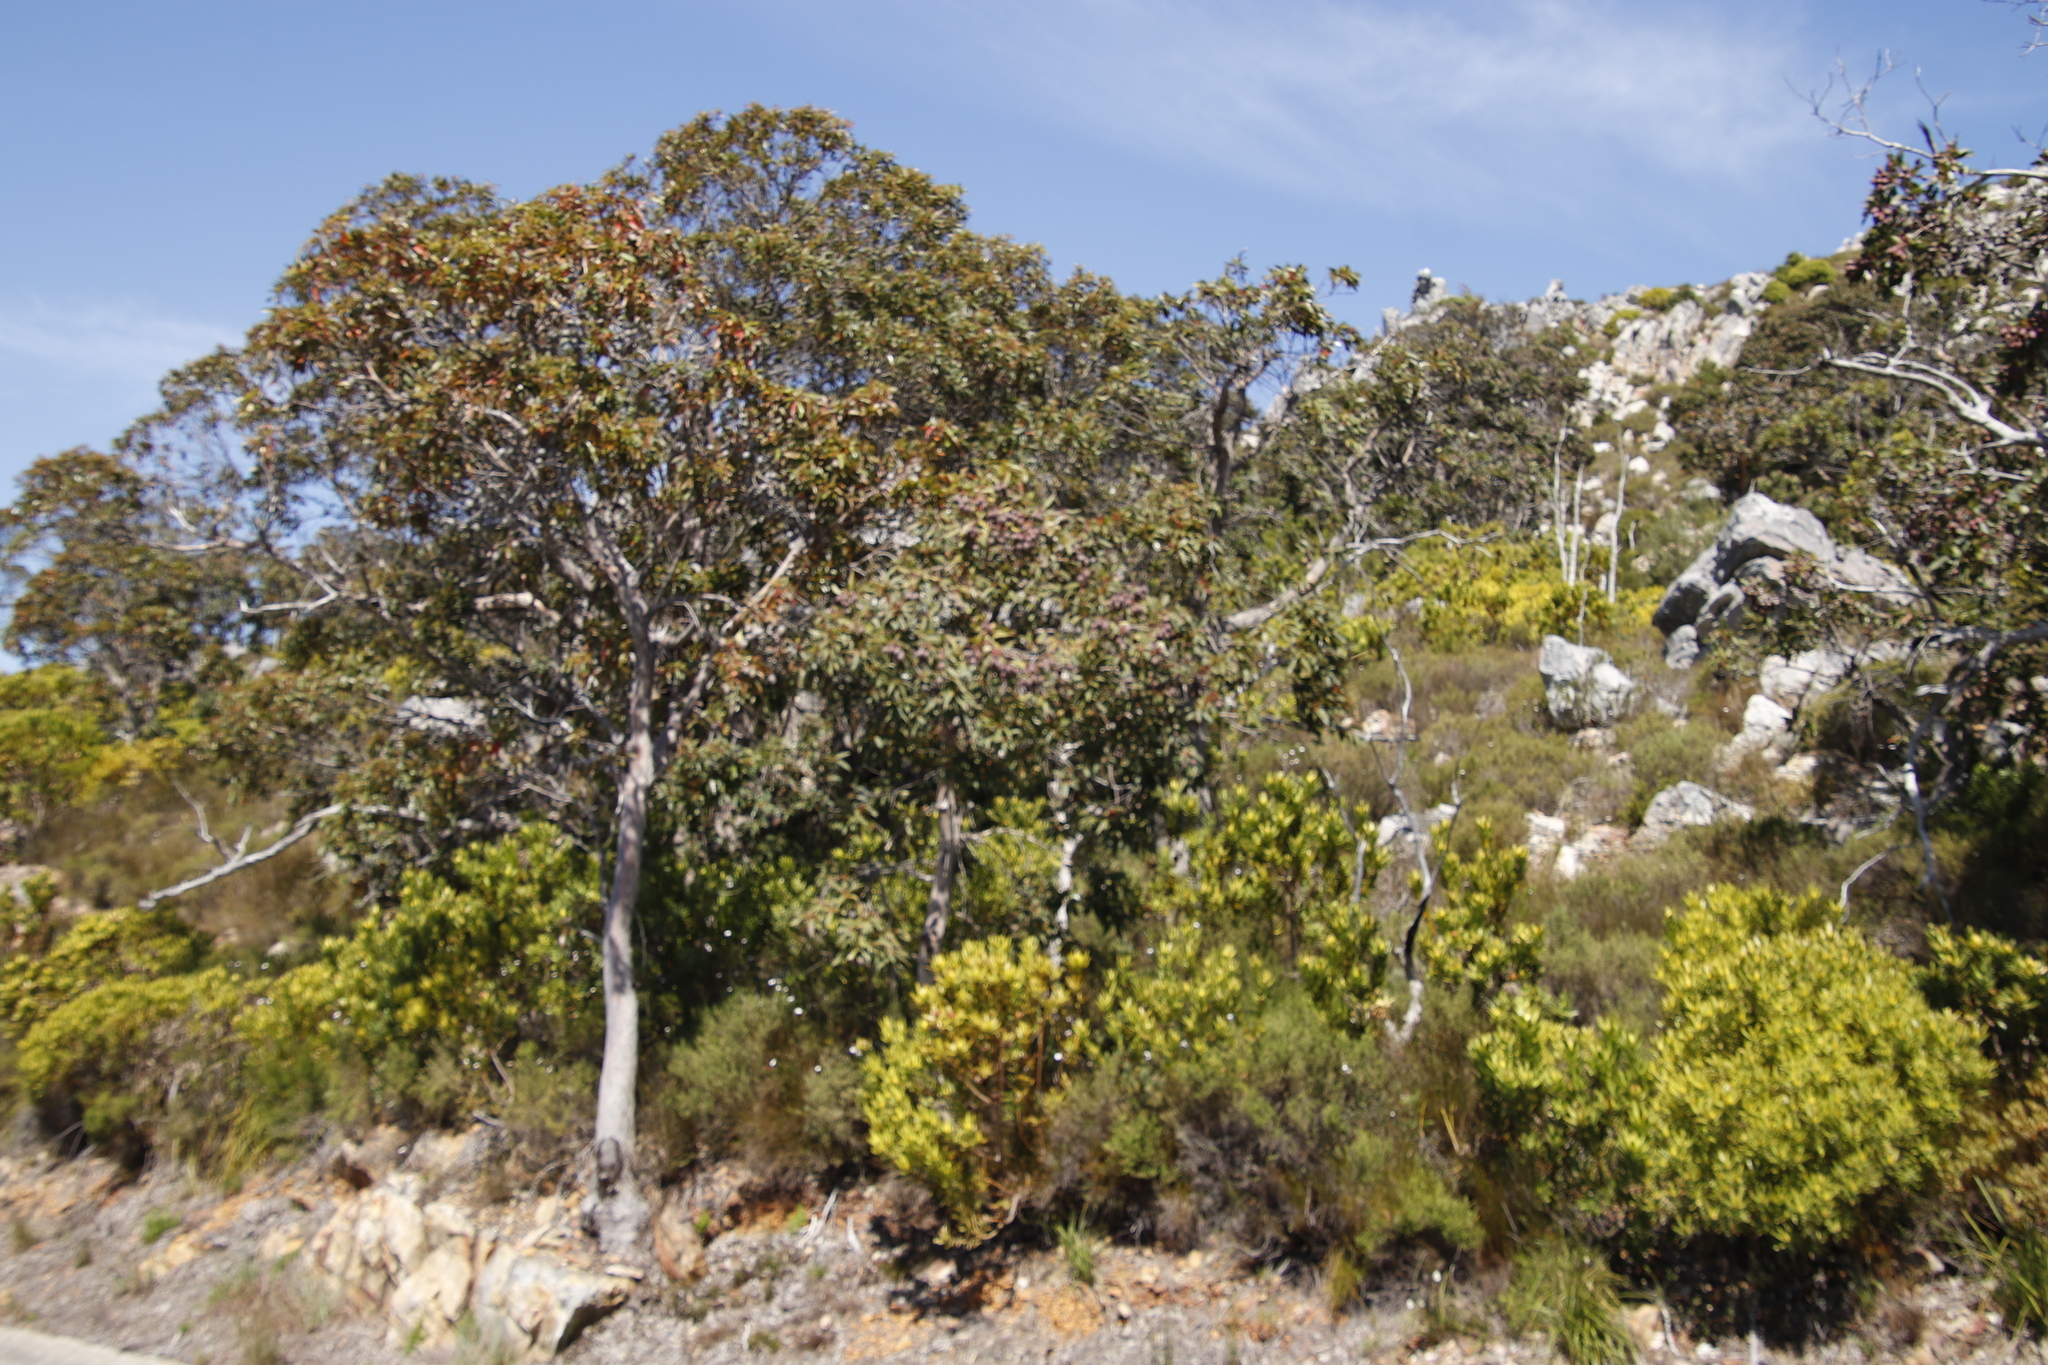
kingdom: Plantae
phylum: Tracheophyta
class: Magnoliopsida
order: Myrtales
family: Myrtaceae
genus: Corymbia
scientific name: Corymbia ficifolia
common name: Redflower gum
